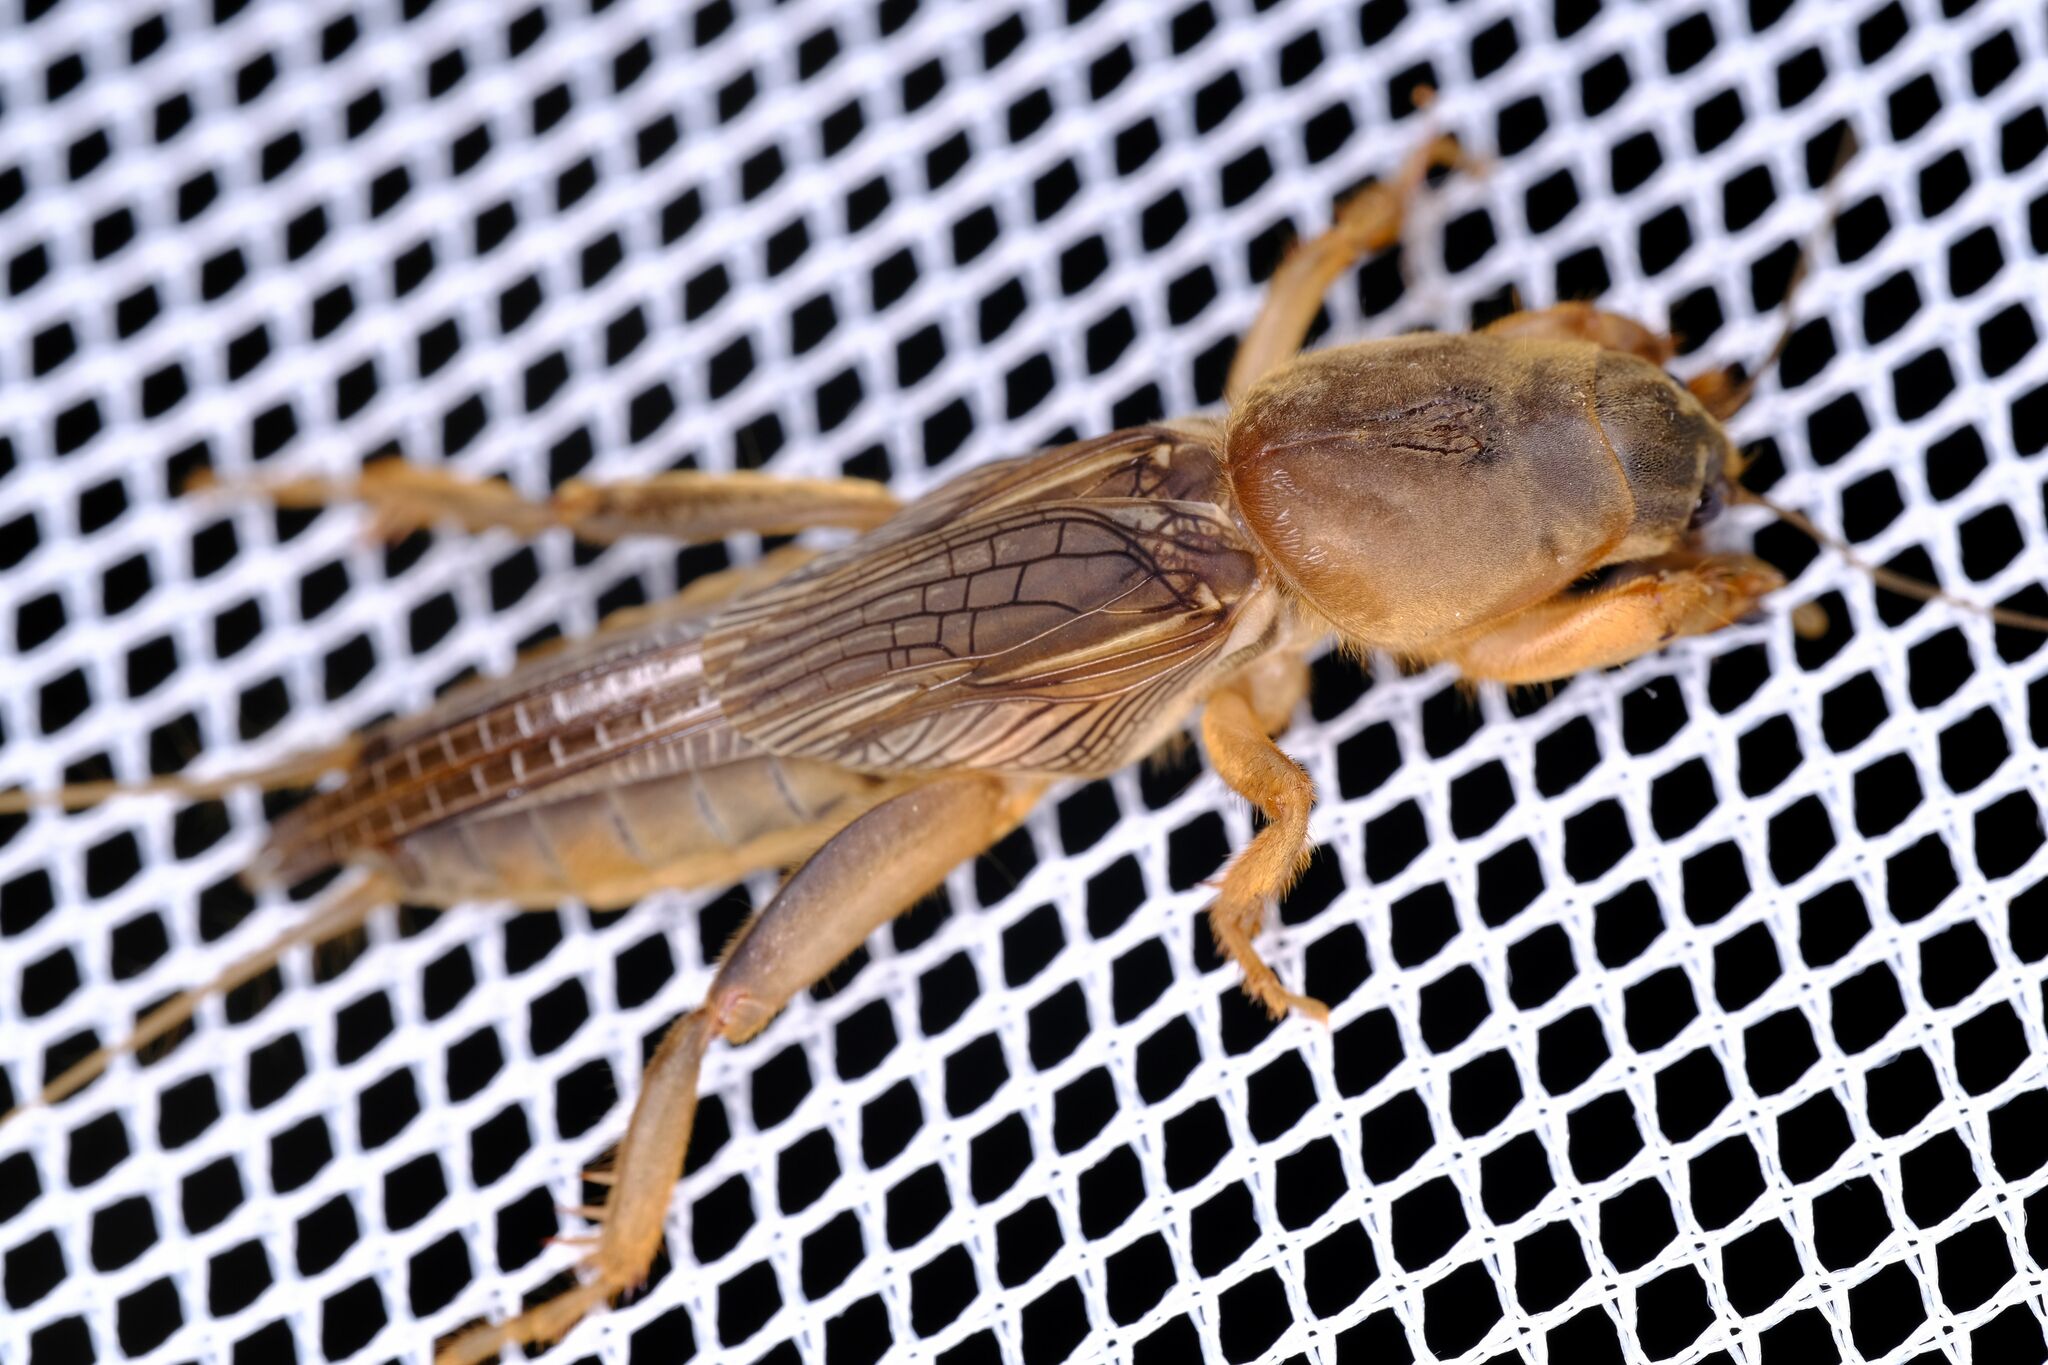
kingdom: Animalia
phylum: Arthropoda
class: Insecta
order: Orthoptera
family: Gryllotalpidae
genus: Gryllotalpa
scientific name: Gryllotalpa australis
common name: Southern mole cricket
